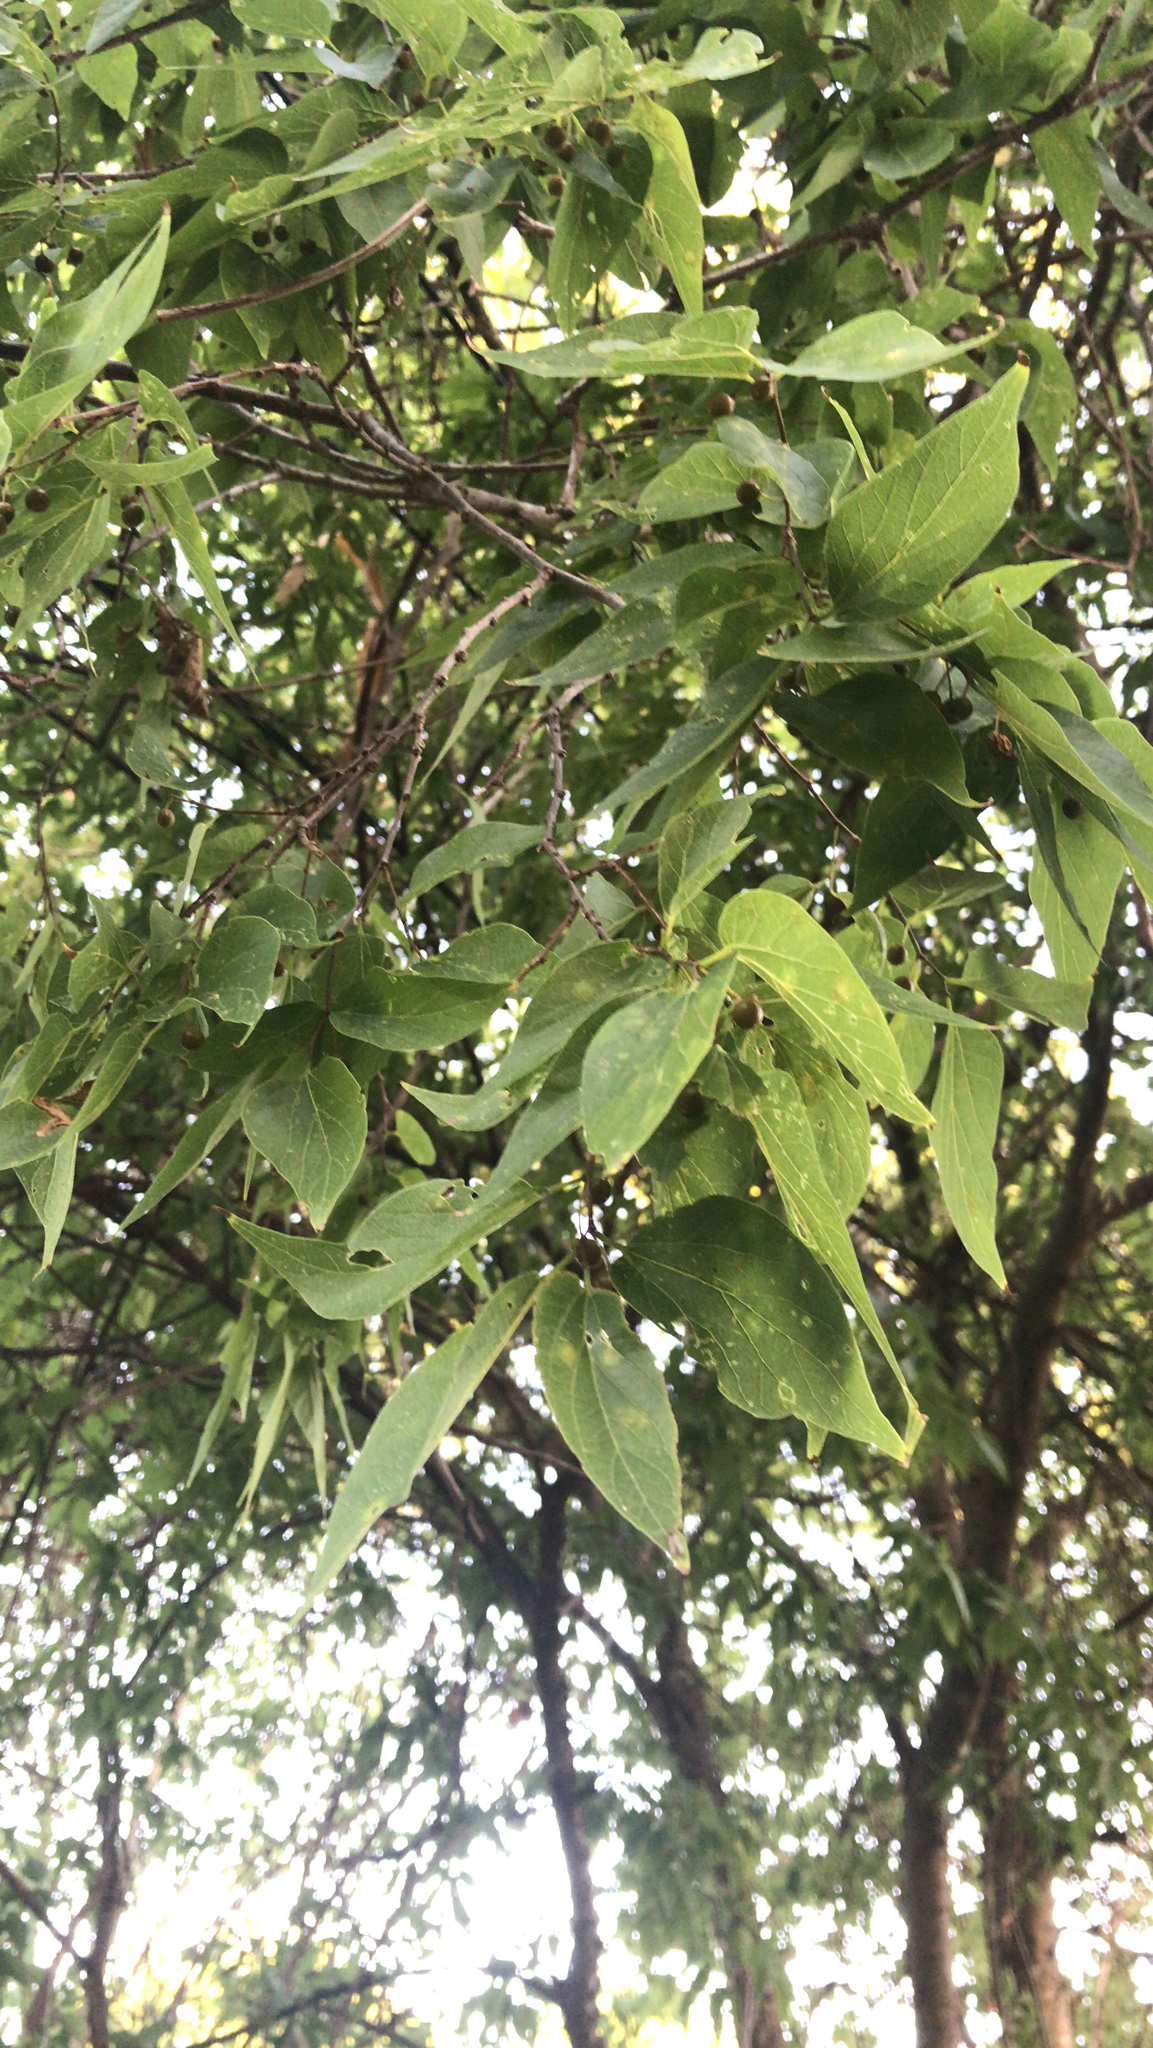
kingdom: Plantae
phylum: Tracheophyta
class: Magnoliopsida
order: Rosales
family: Cannabaceae
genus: Celtis
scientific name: Celtis laevigata
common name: Sugarberry
